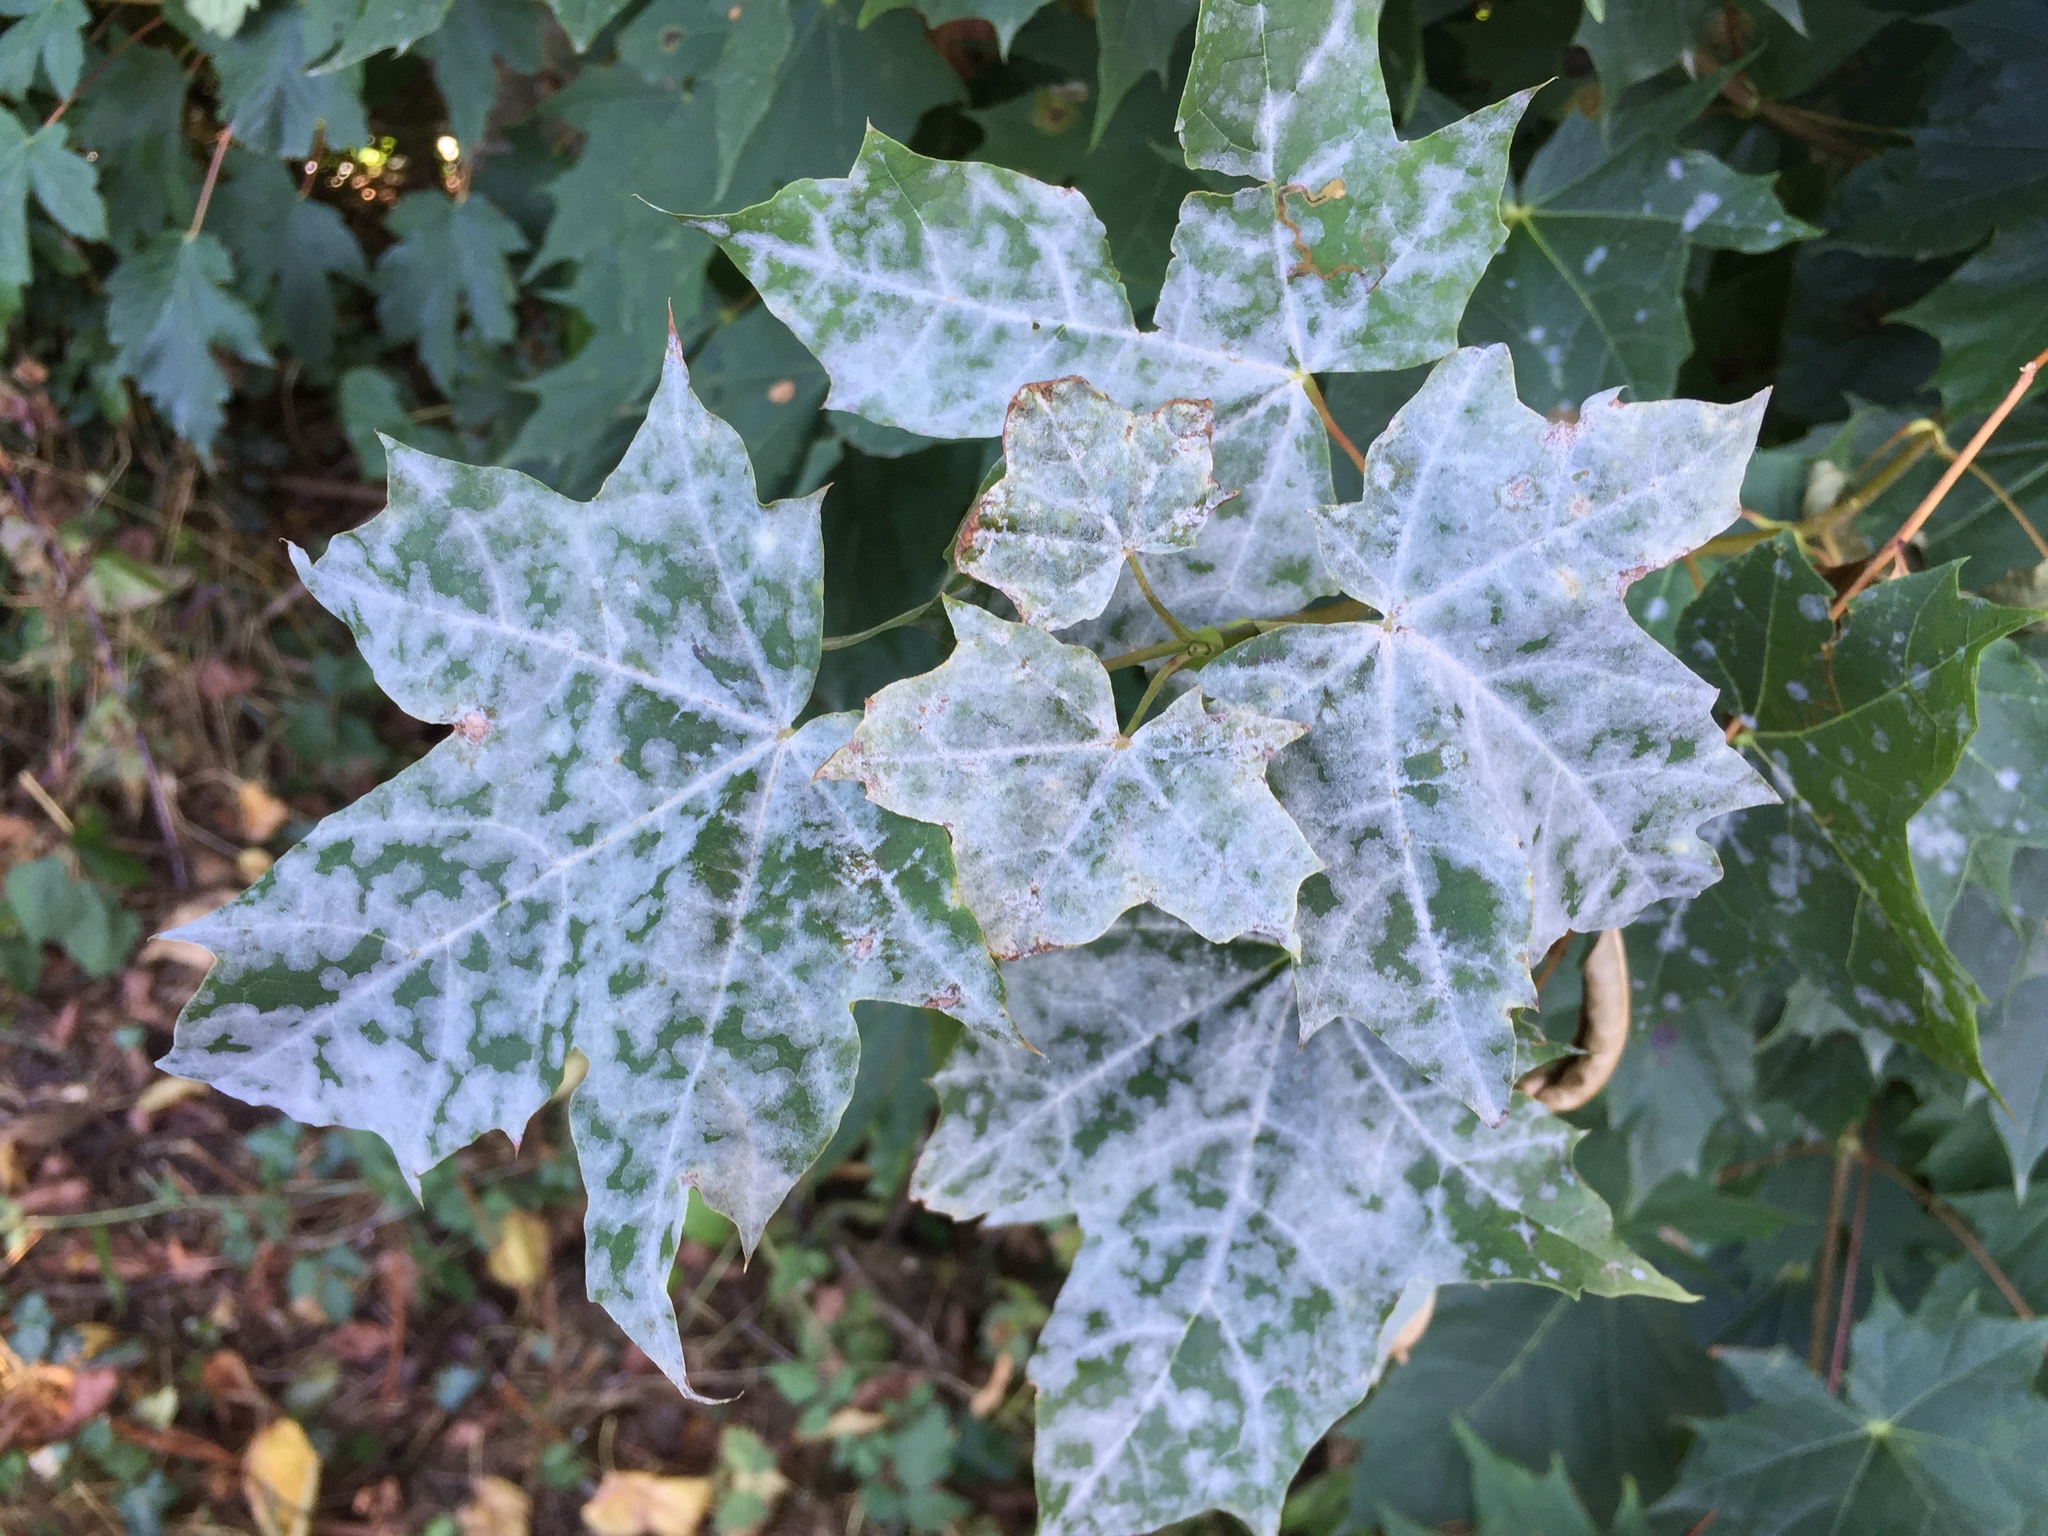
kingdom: Plantae
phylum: Tracheophyta
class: Magnoliopsida
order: Sapindales
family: Sapindaceae
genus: Acer
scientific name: Acer platanoides
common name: Norway maple
